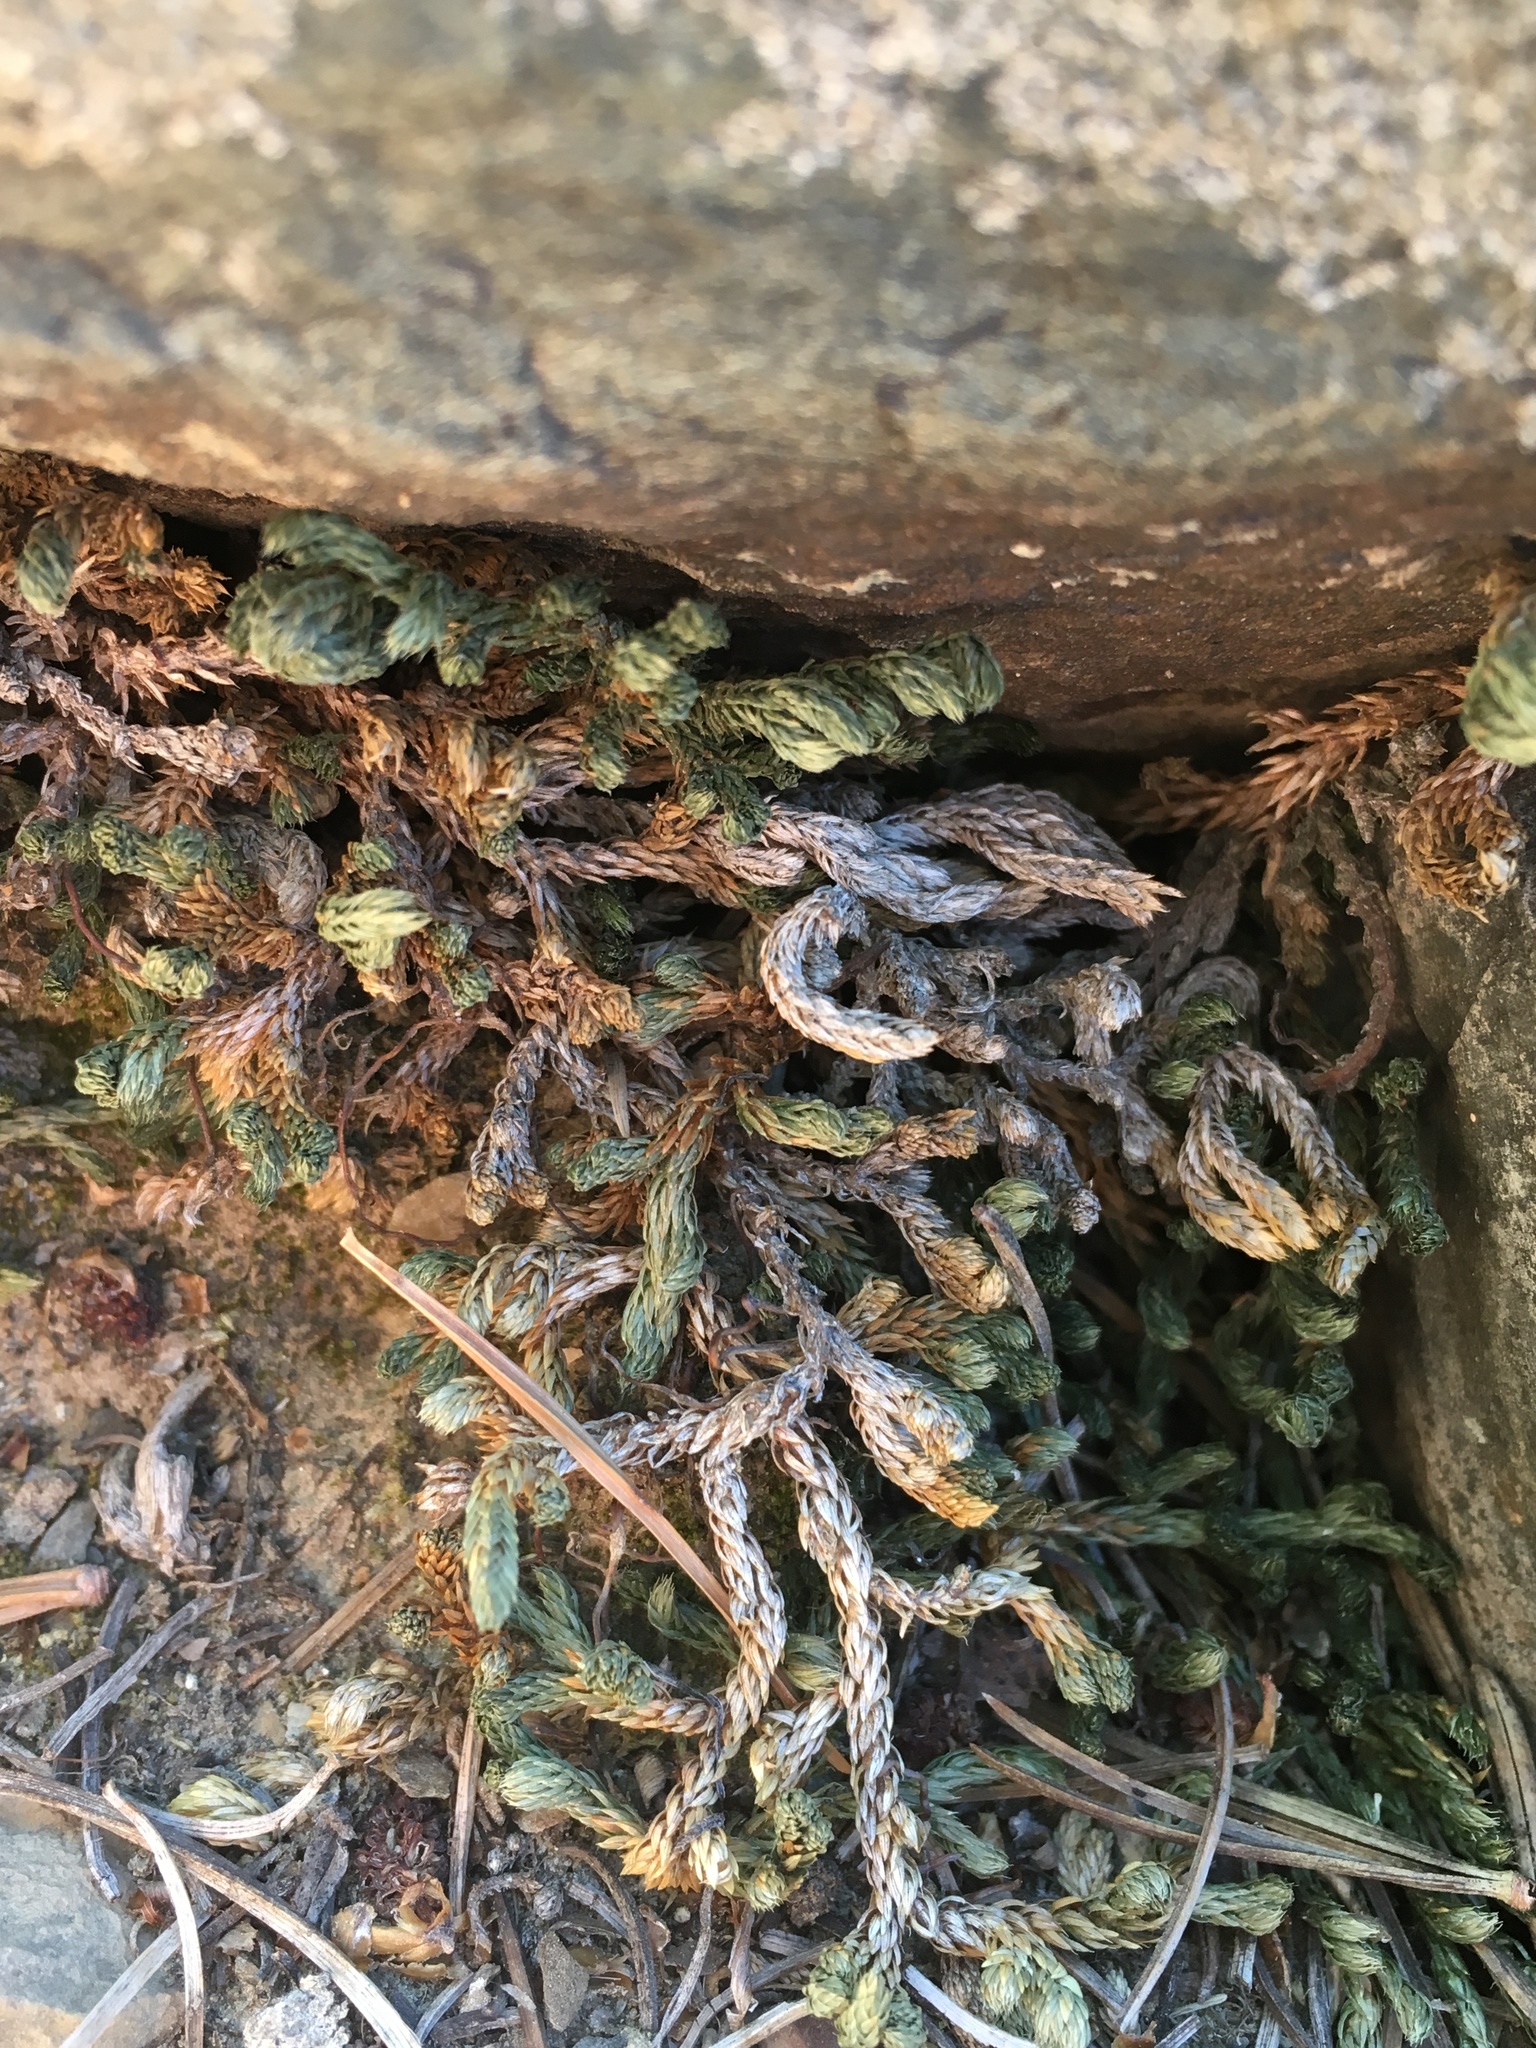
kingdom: Plantae
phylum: Tracheophyta
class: Lycopodiopsida
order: Selaginellales
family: Selaginellaceae
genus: Selaginella
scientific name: Selaginella watsonii
